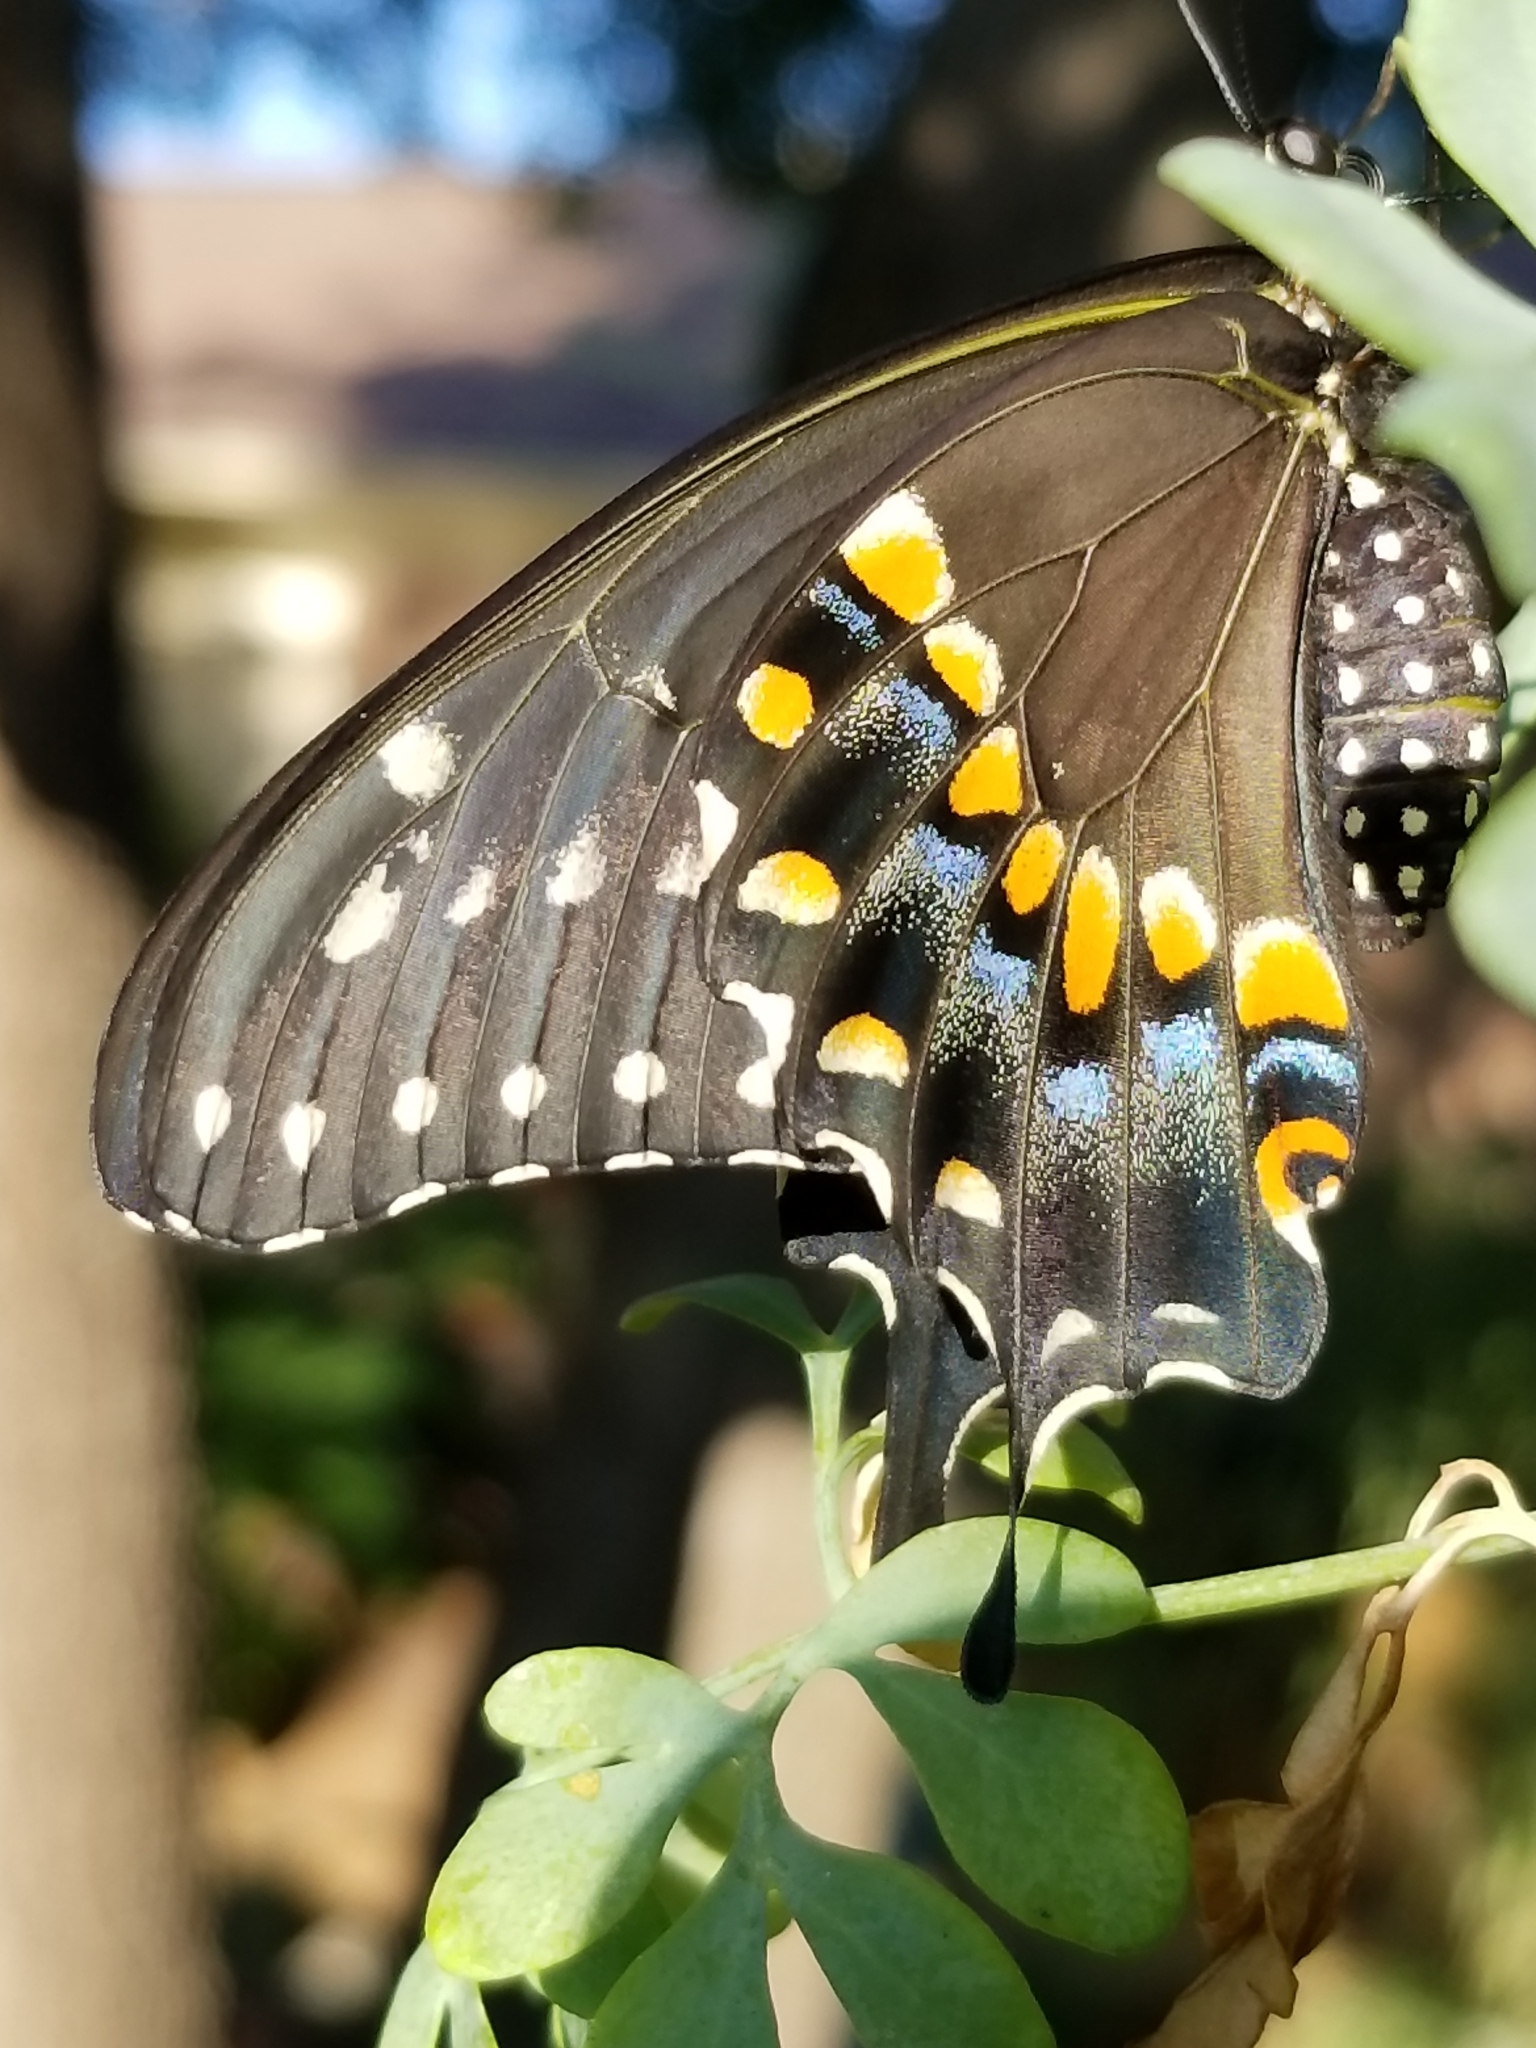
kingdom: Animalia
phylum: Arthropoda
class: Insecta
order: Lepidoptera
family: Papilionidae
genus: Papilio
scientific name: Papilio polyxenes
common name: Black swallowtail
